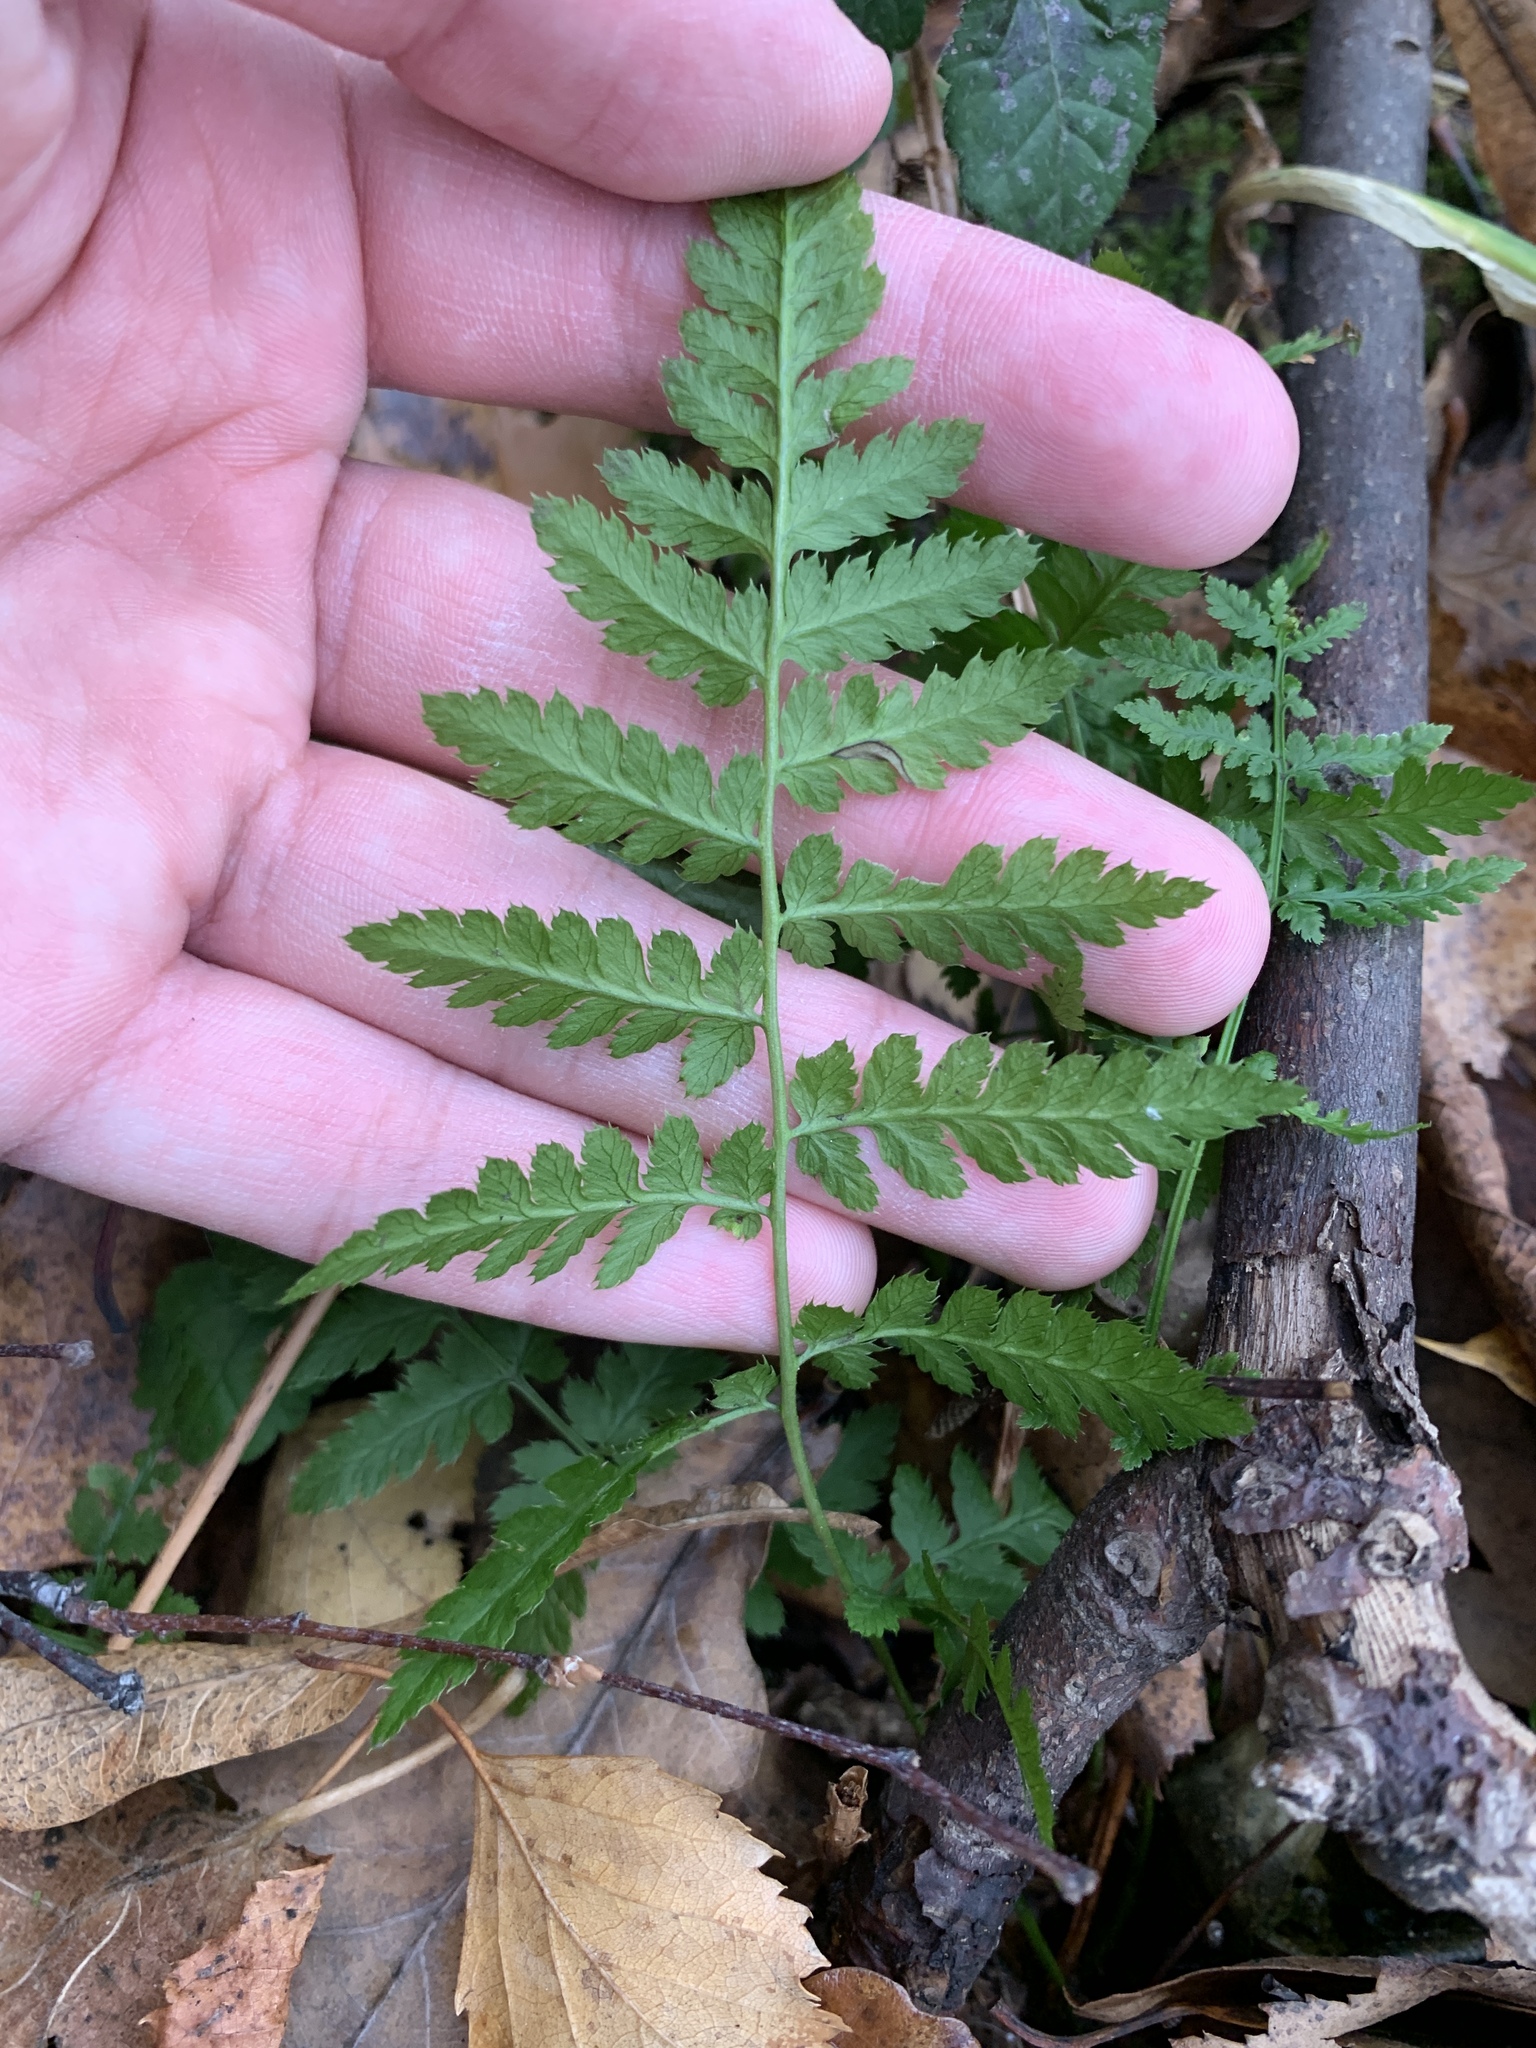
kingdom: Plantae
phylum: Tracheophyta
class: Polypodiopsida
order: Polypodiales
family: Dryopteridaceae
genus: Dryopteris
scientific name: Dryopteris carthusiana
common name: Narrow buckler-fern
